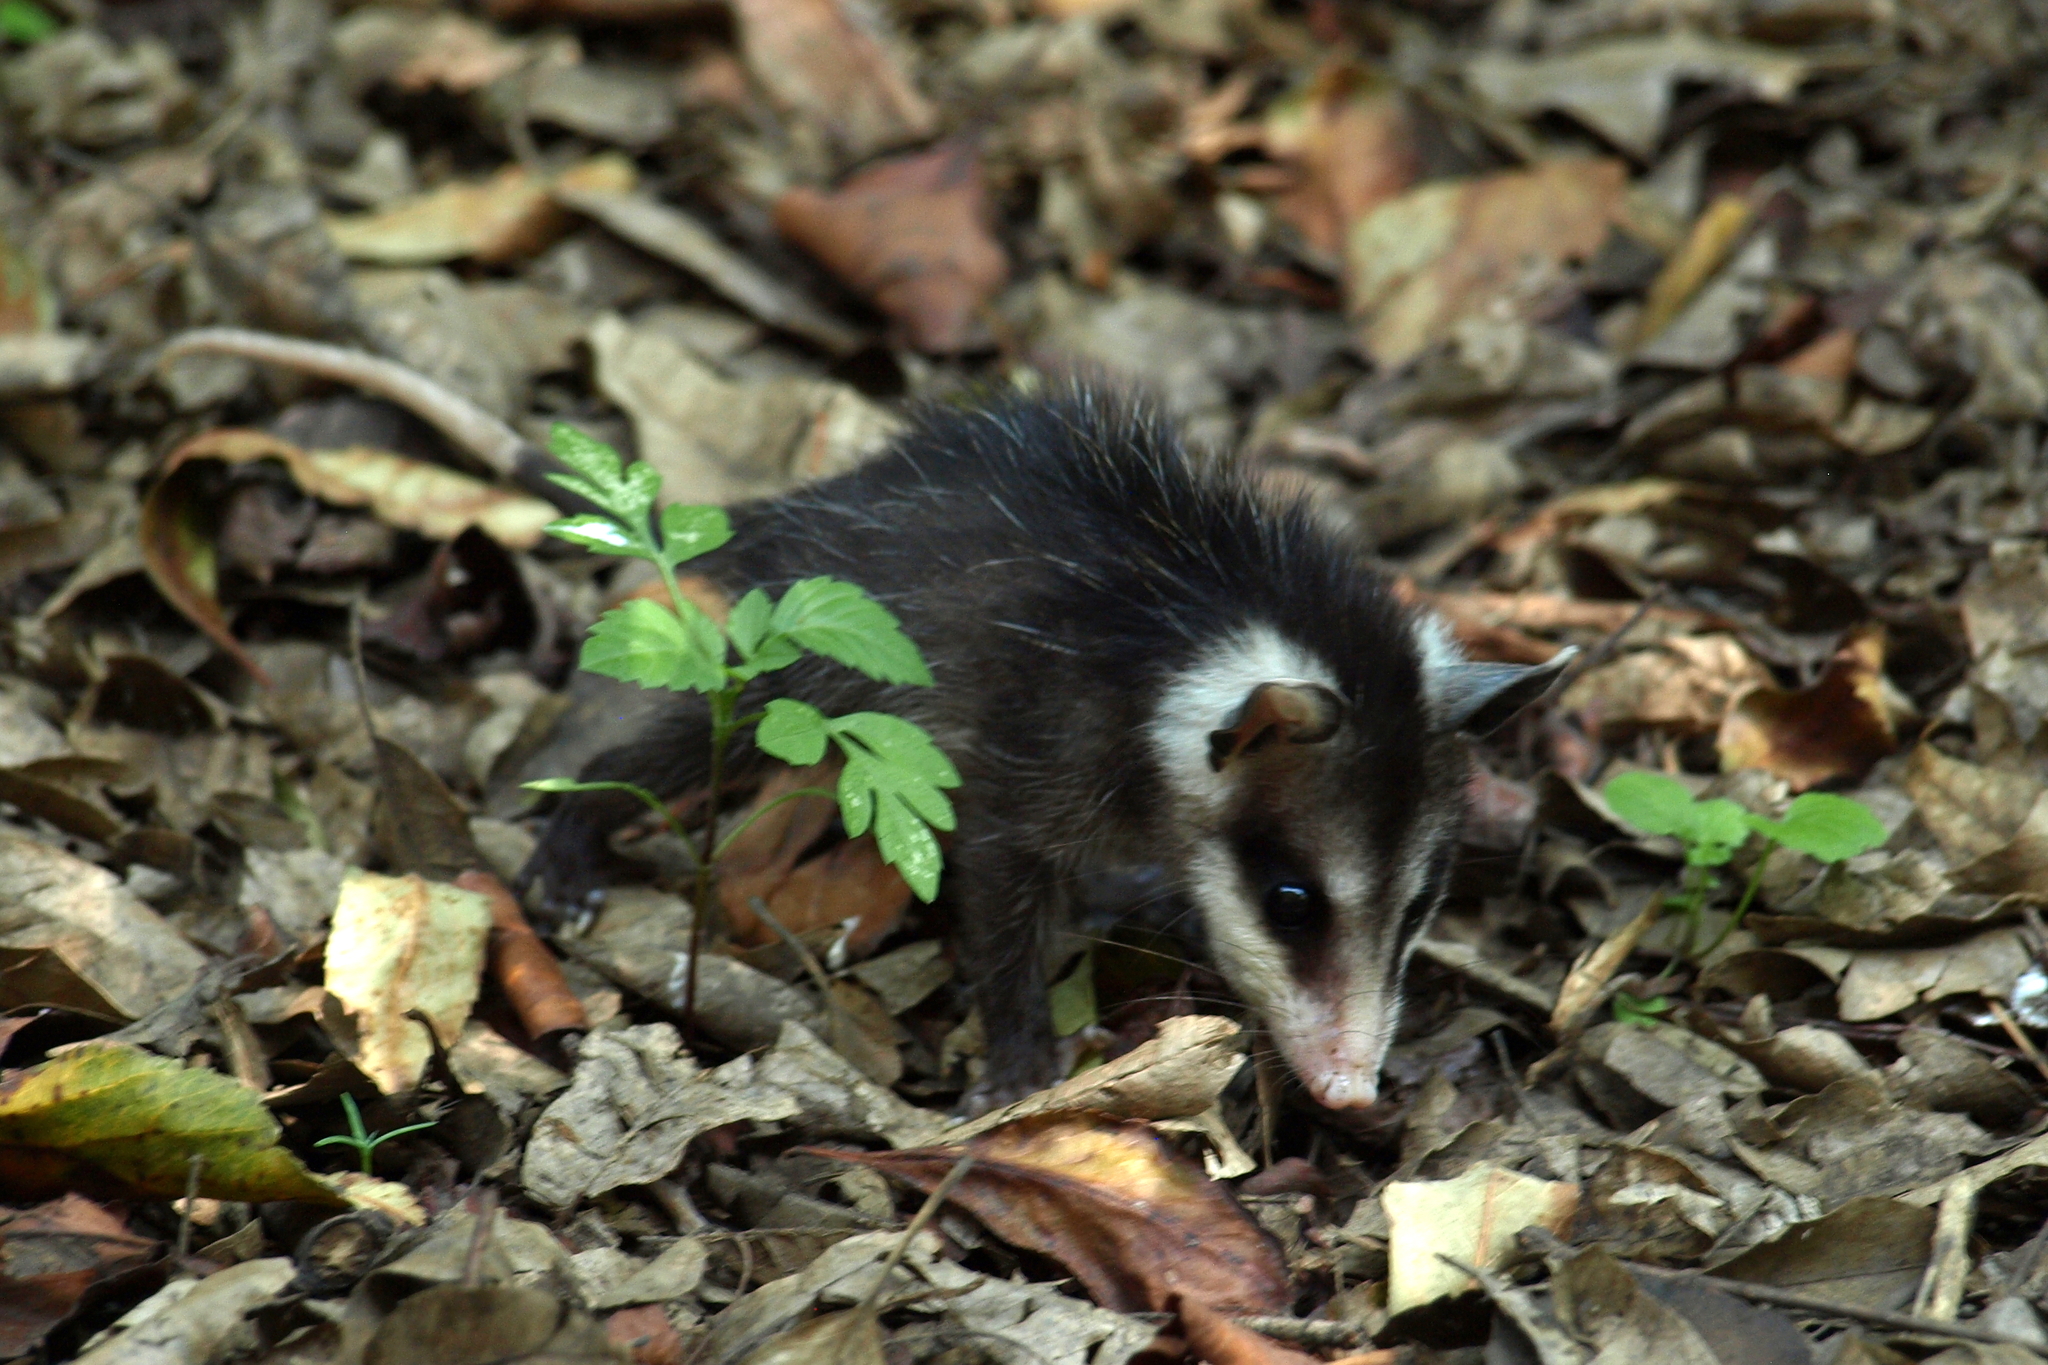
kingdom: Animalia
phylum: Chordata
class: Mammalia
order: Didelphimorphia
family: Didelphidae
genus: Didelphis
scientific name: Didelphis virginiana
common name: Virginia opossum
